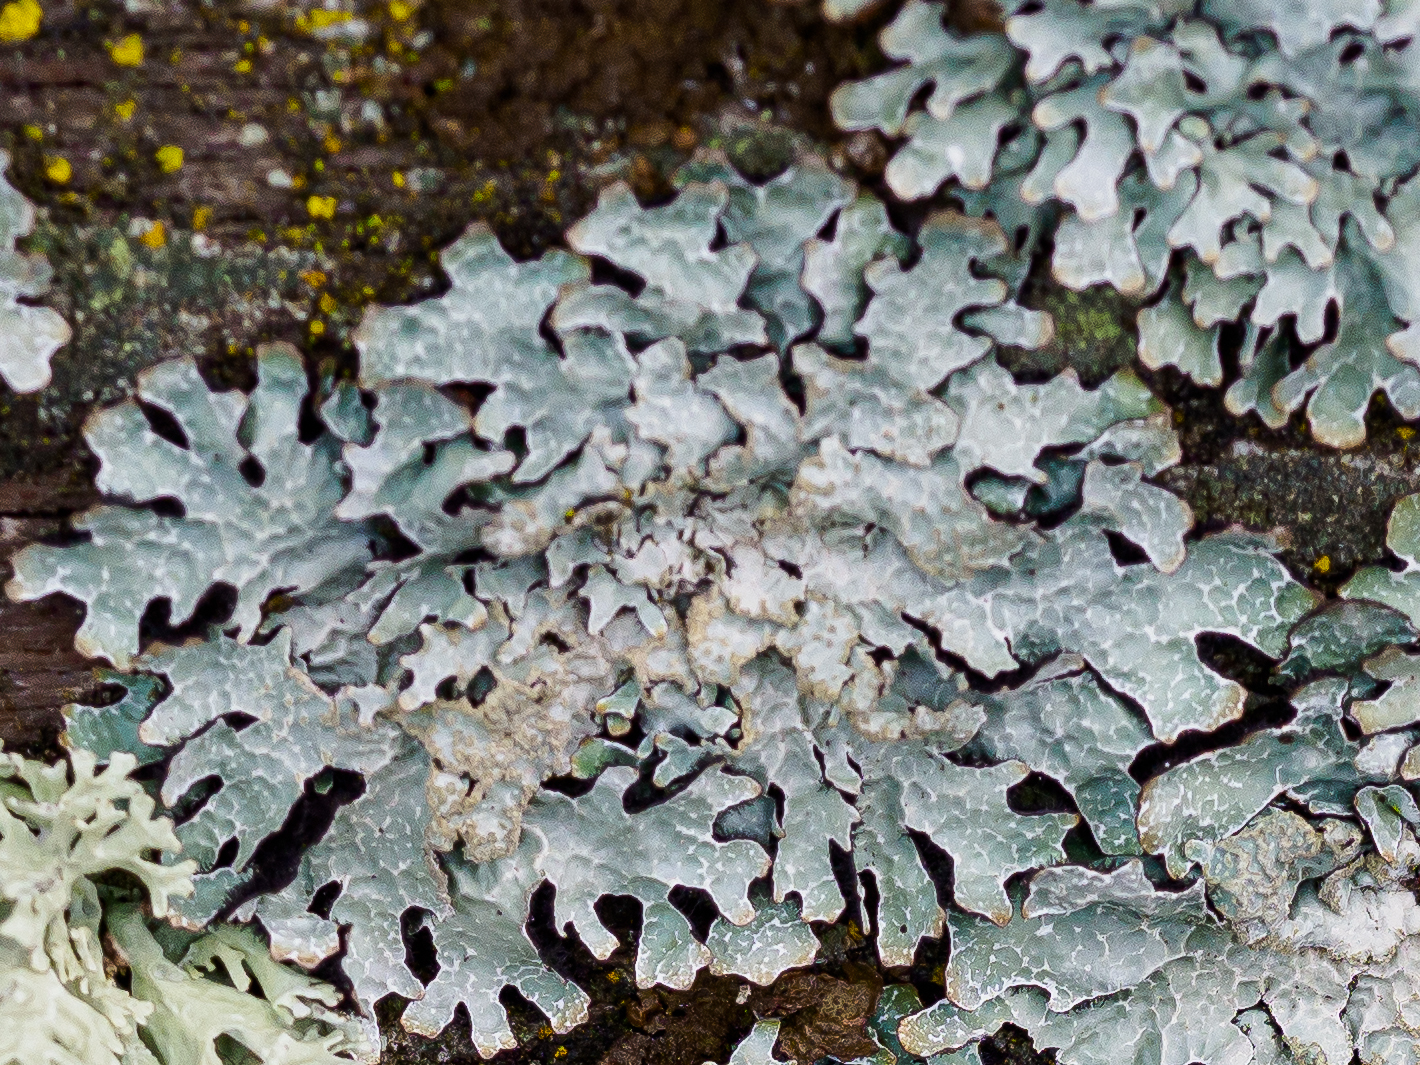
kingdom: Fungi
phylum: Ascomycota
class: Lecanoromycetes
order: Lecanorales
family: Parmeliaceae
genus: Parmelia
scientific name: Parmelia sulcata
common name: Netted shield lichen
